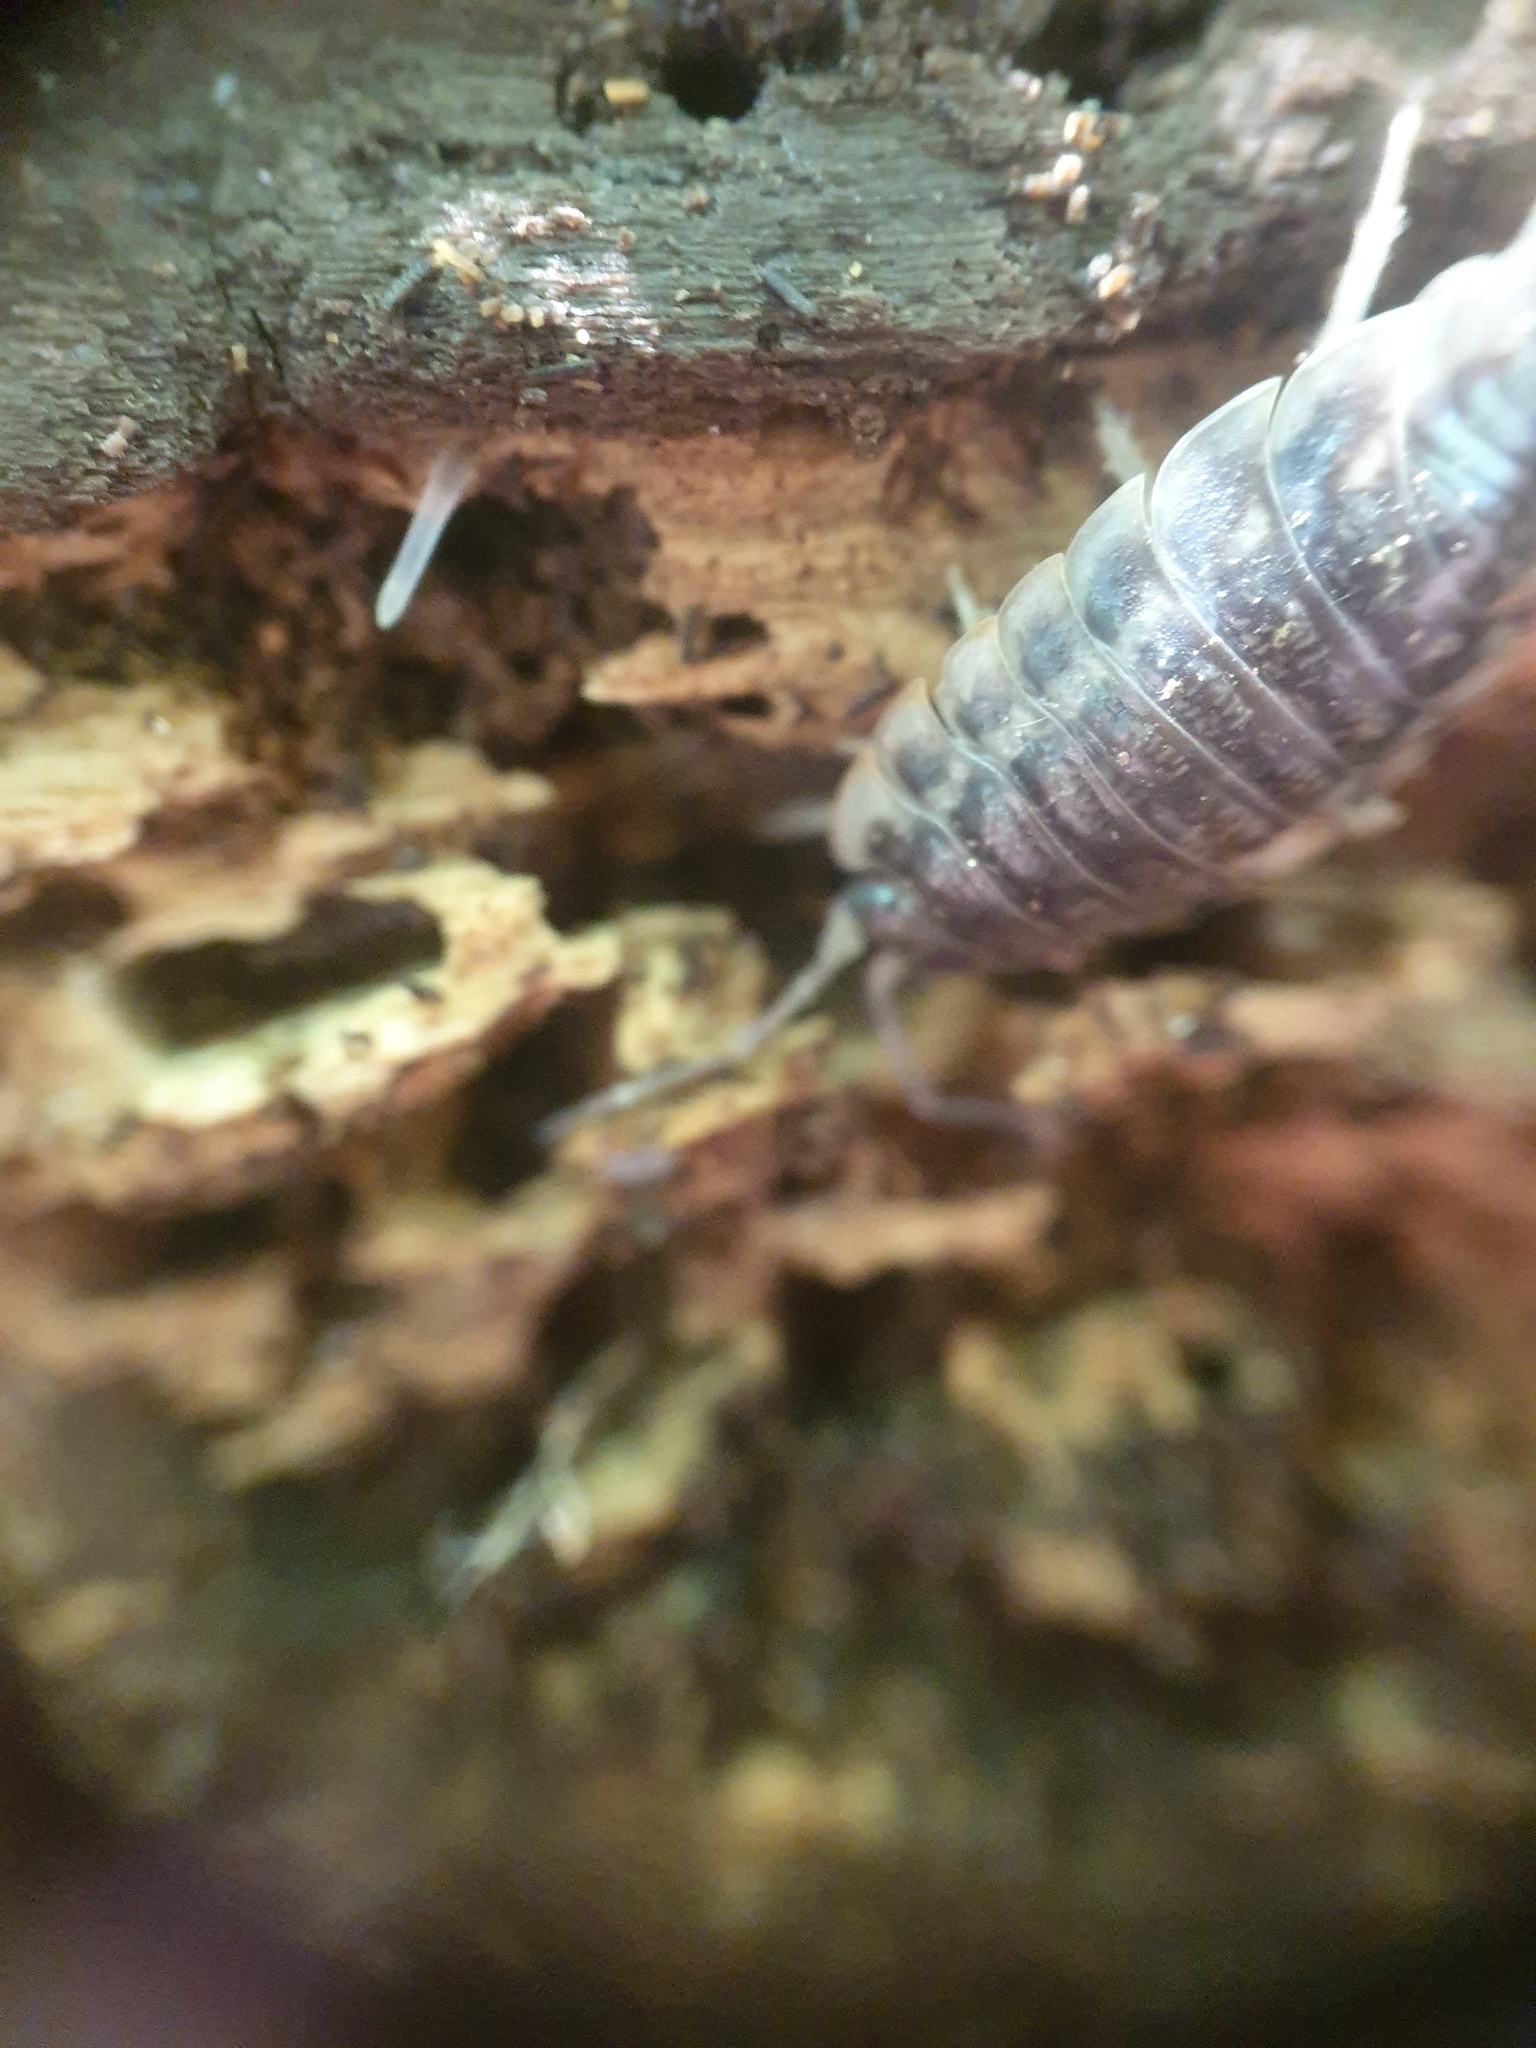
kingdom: Animalia
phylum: Arthropoda
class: Malacostraca
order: Isopoda
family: Oniscidae
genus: Oniscus
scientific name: Oniscus asellus
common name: Common shiny woodlouse
